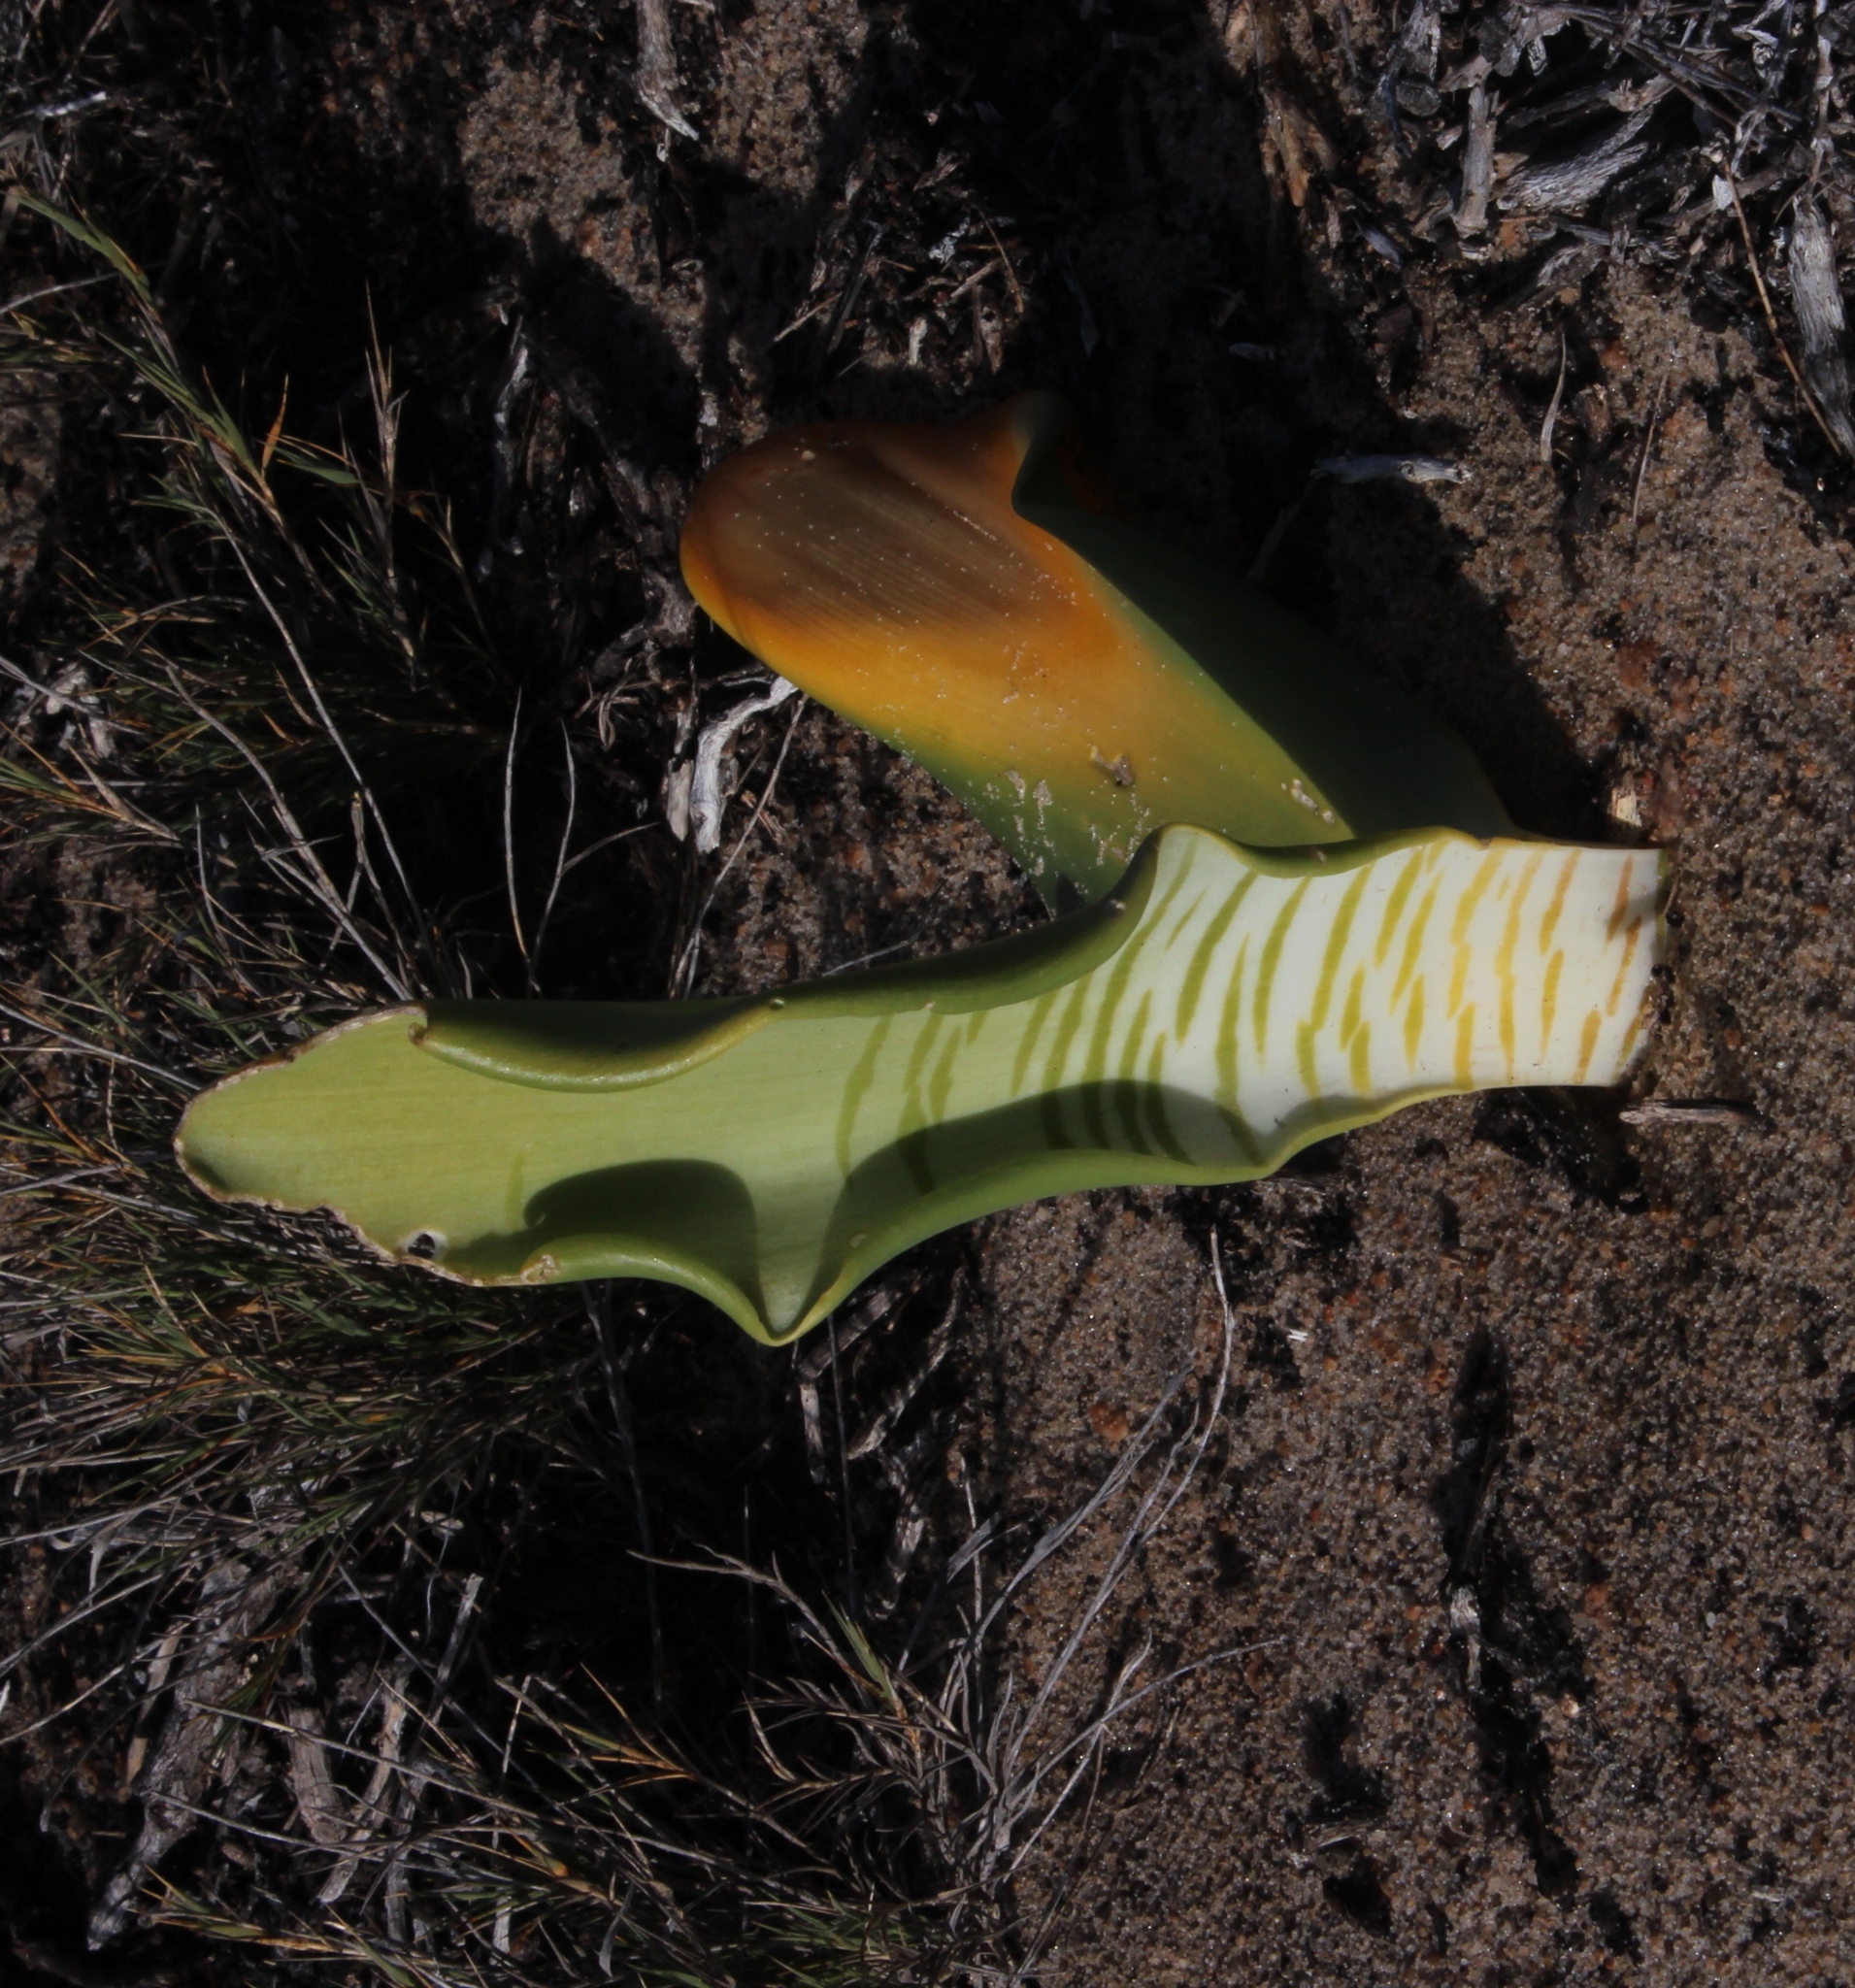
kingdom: Plantae
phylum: Tracheophyta
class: Liliopsida
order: Asparagales
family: Amaryllidaceae
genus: Haemanthus
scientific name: Haemanthus coccineus
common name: Cape-tulip
